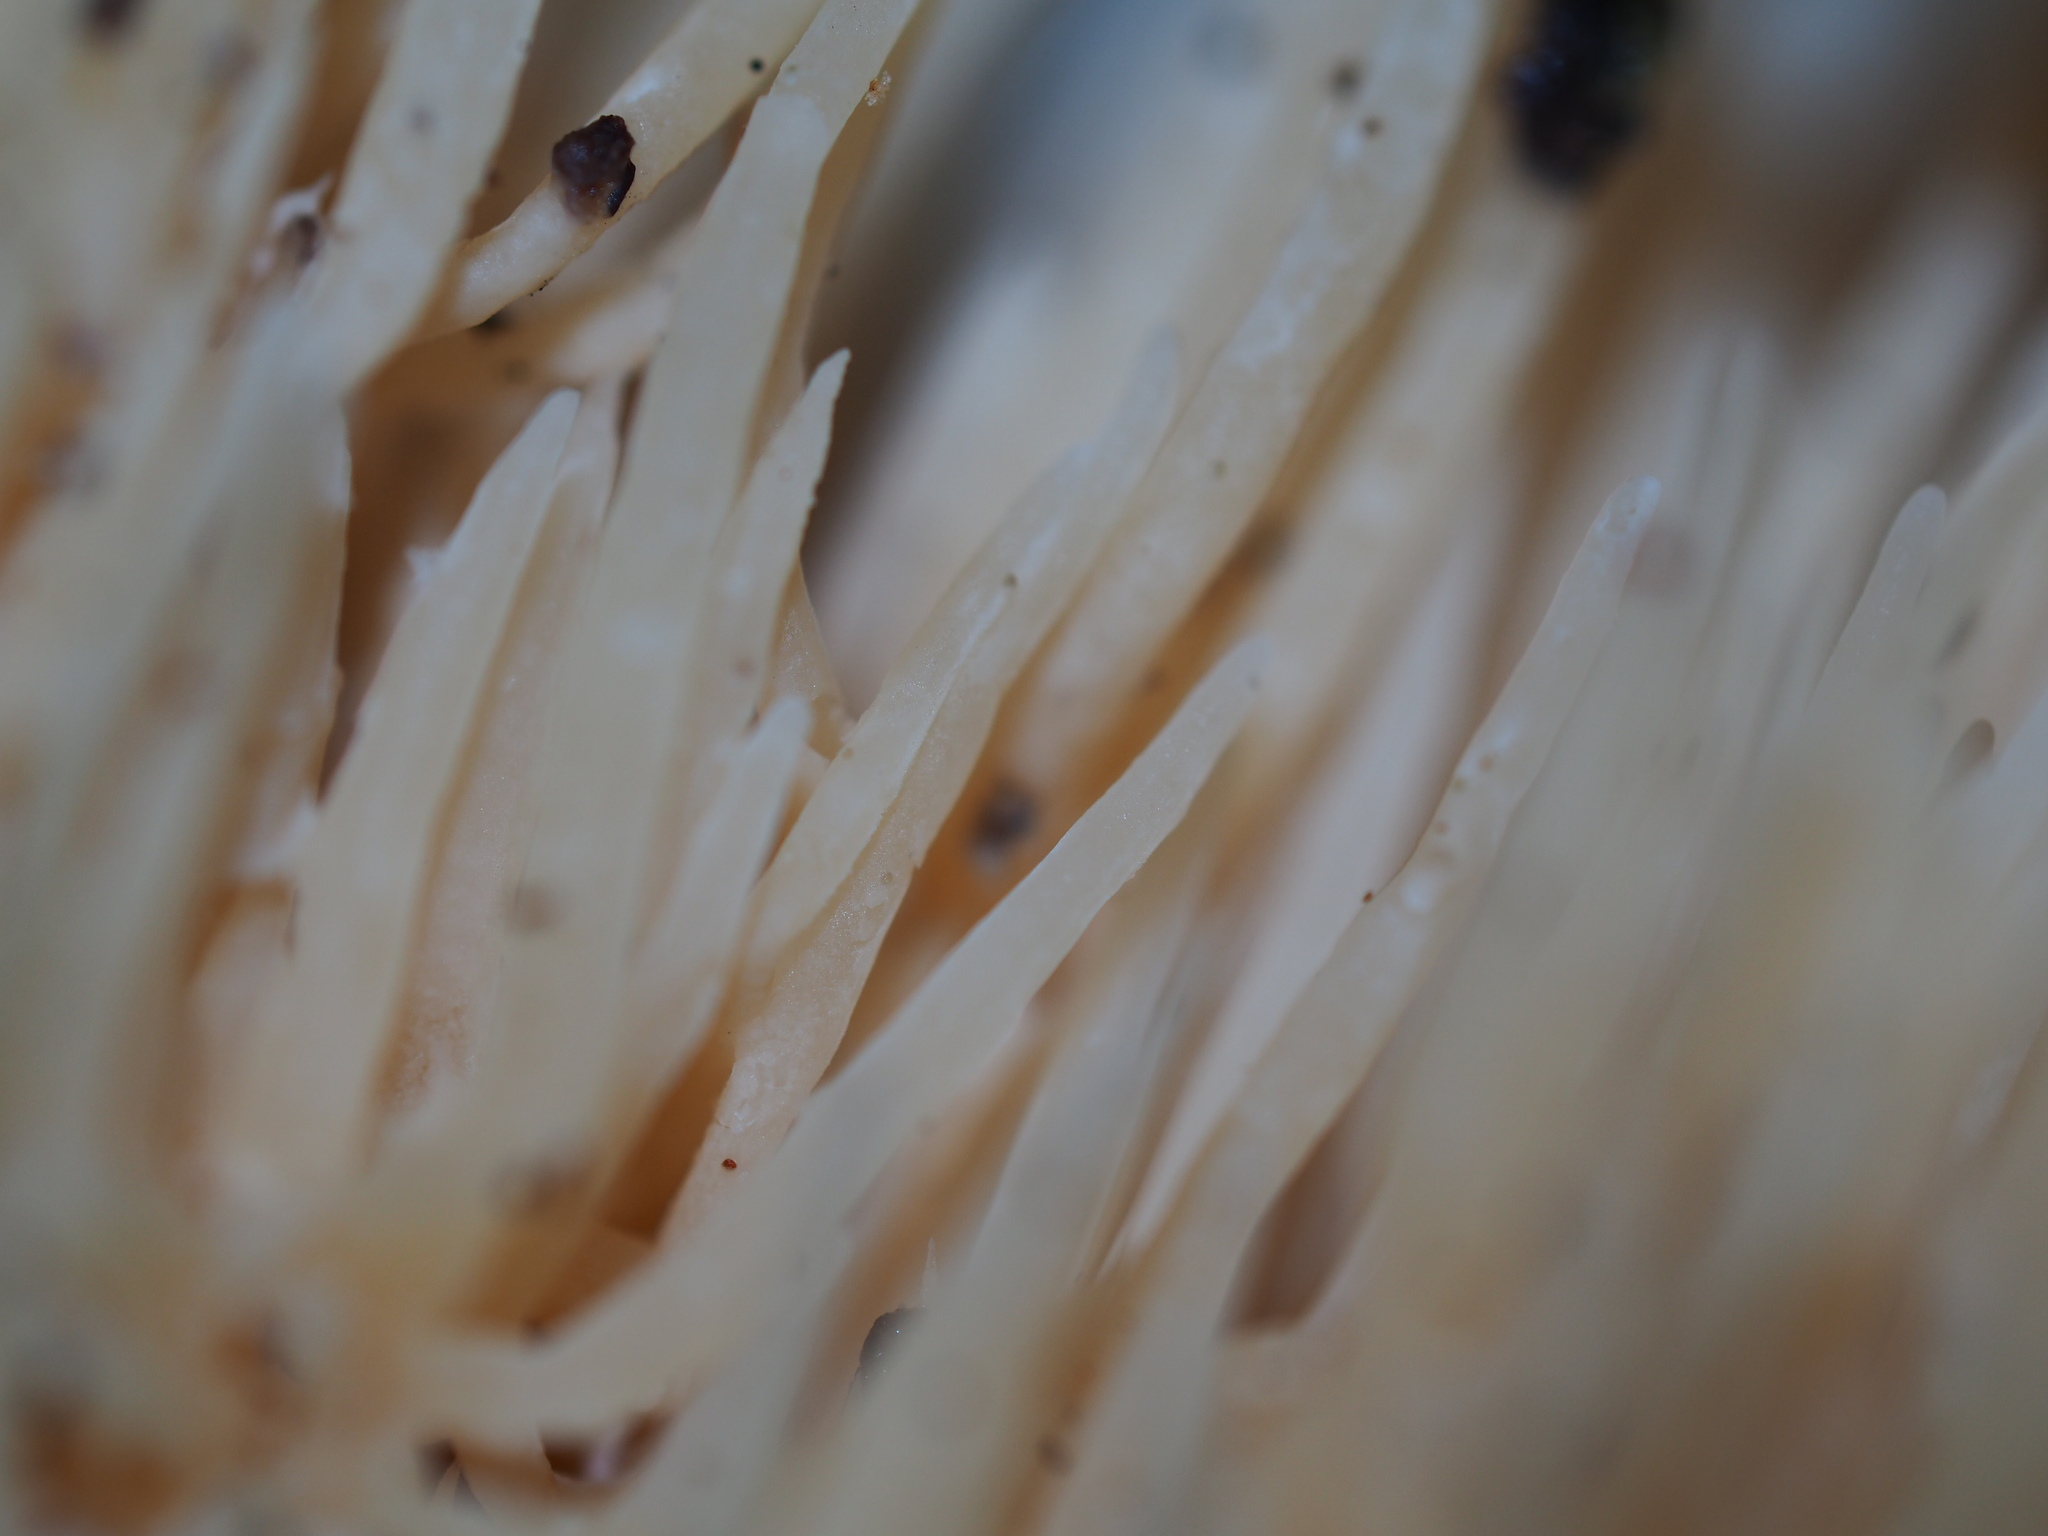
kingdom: Fungi
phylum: Basidiomycota
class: Agaricomycetes
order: Russulales
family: Hericiaceae
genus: Hericium
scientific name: Hericium novae-zealandiae
